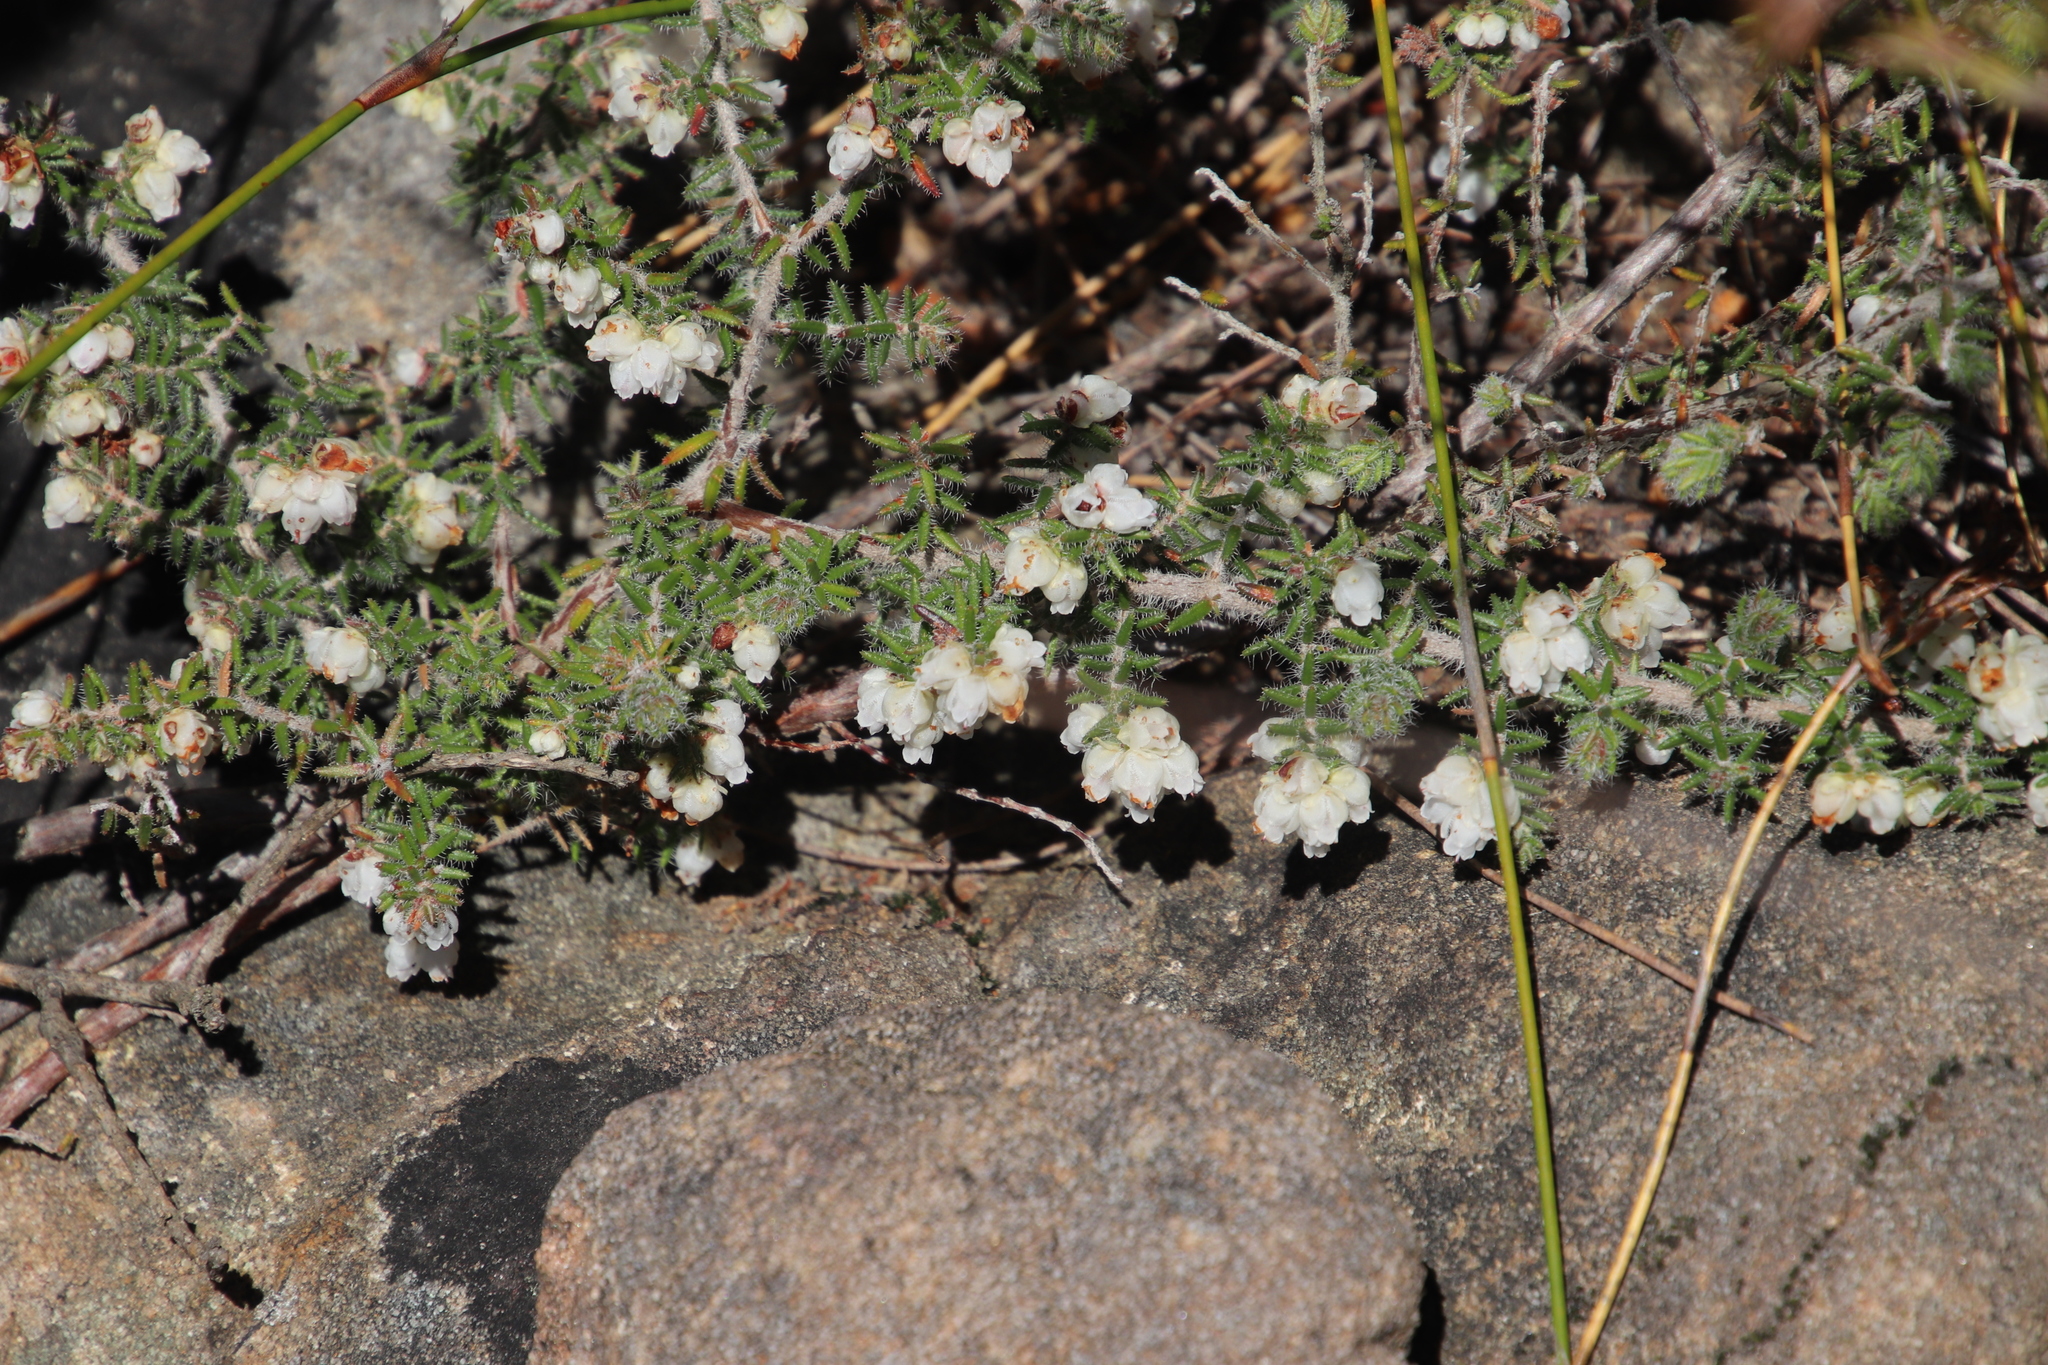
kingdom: Plantae
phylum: Tracheophyta
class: Magnoliopsida
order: Ericales
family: Ericaceae
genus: Erica
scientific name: Erica totta
